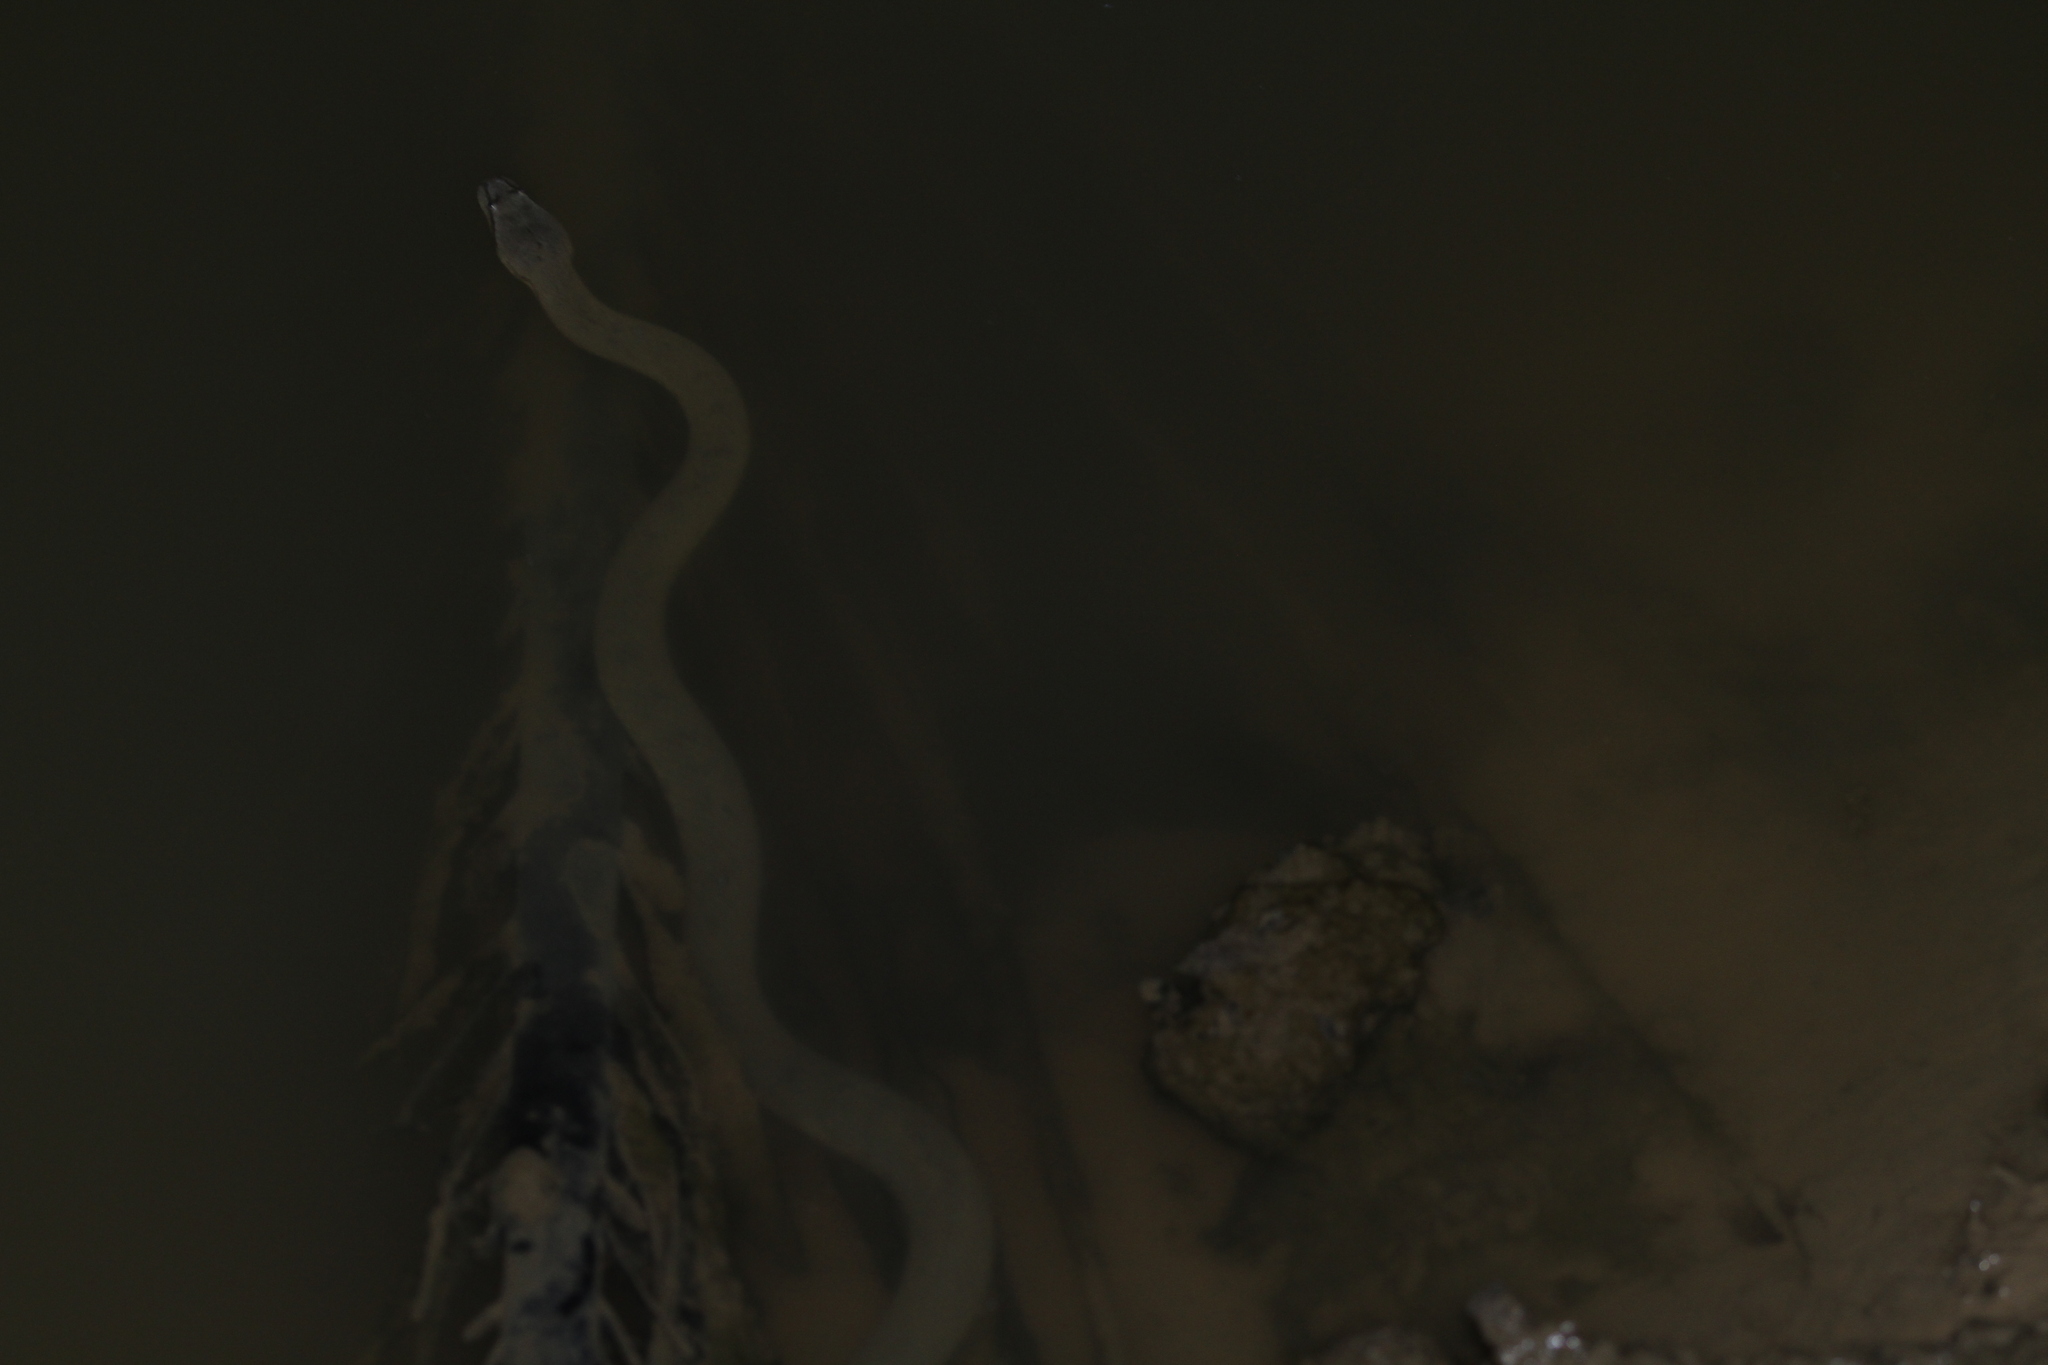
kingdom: Animalia
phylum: Chordata
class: Squamata
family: Homalopsidae
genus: Cerberus
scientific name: Cerberus schneiderii
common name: Southeast asian bockadam
